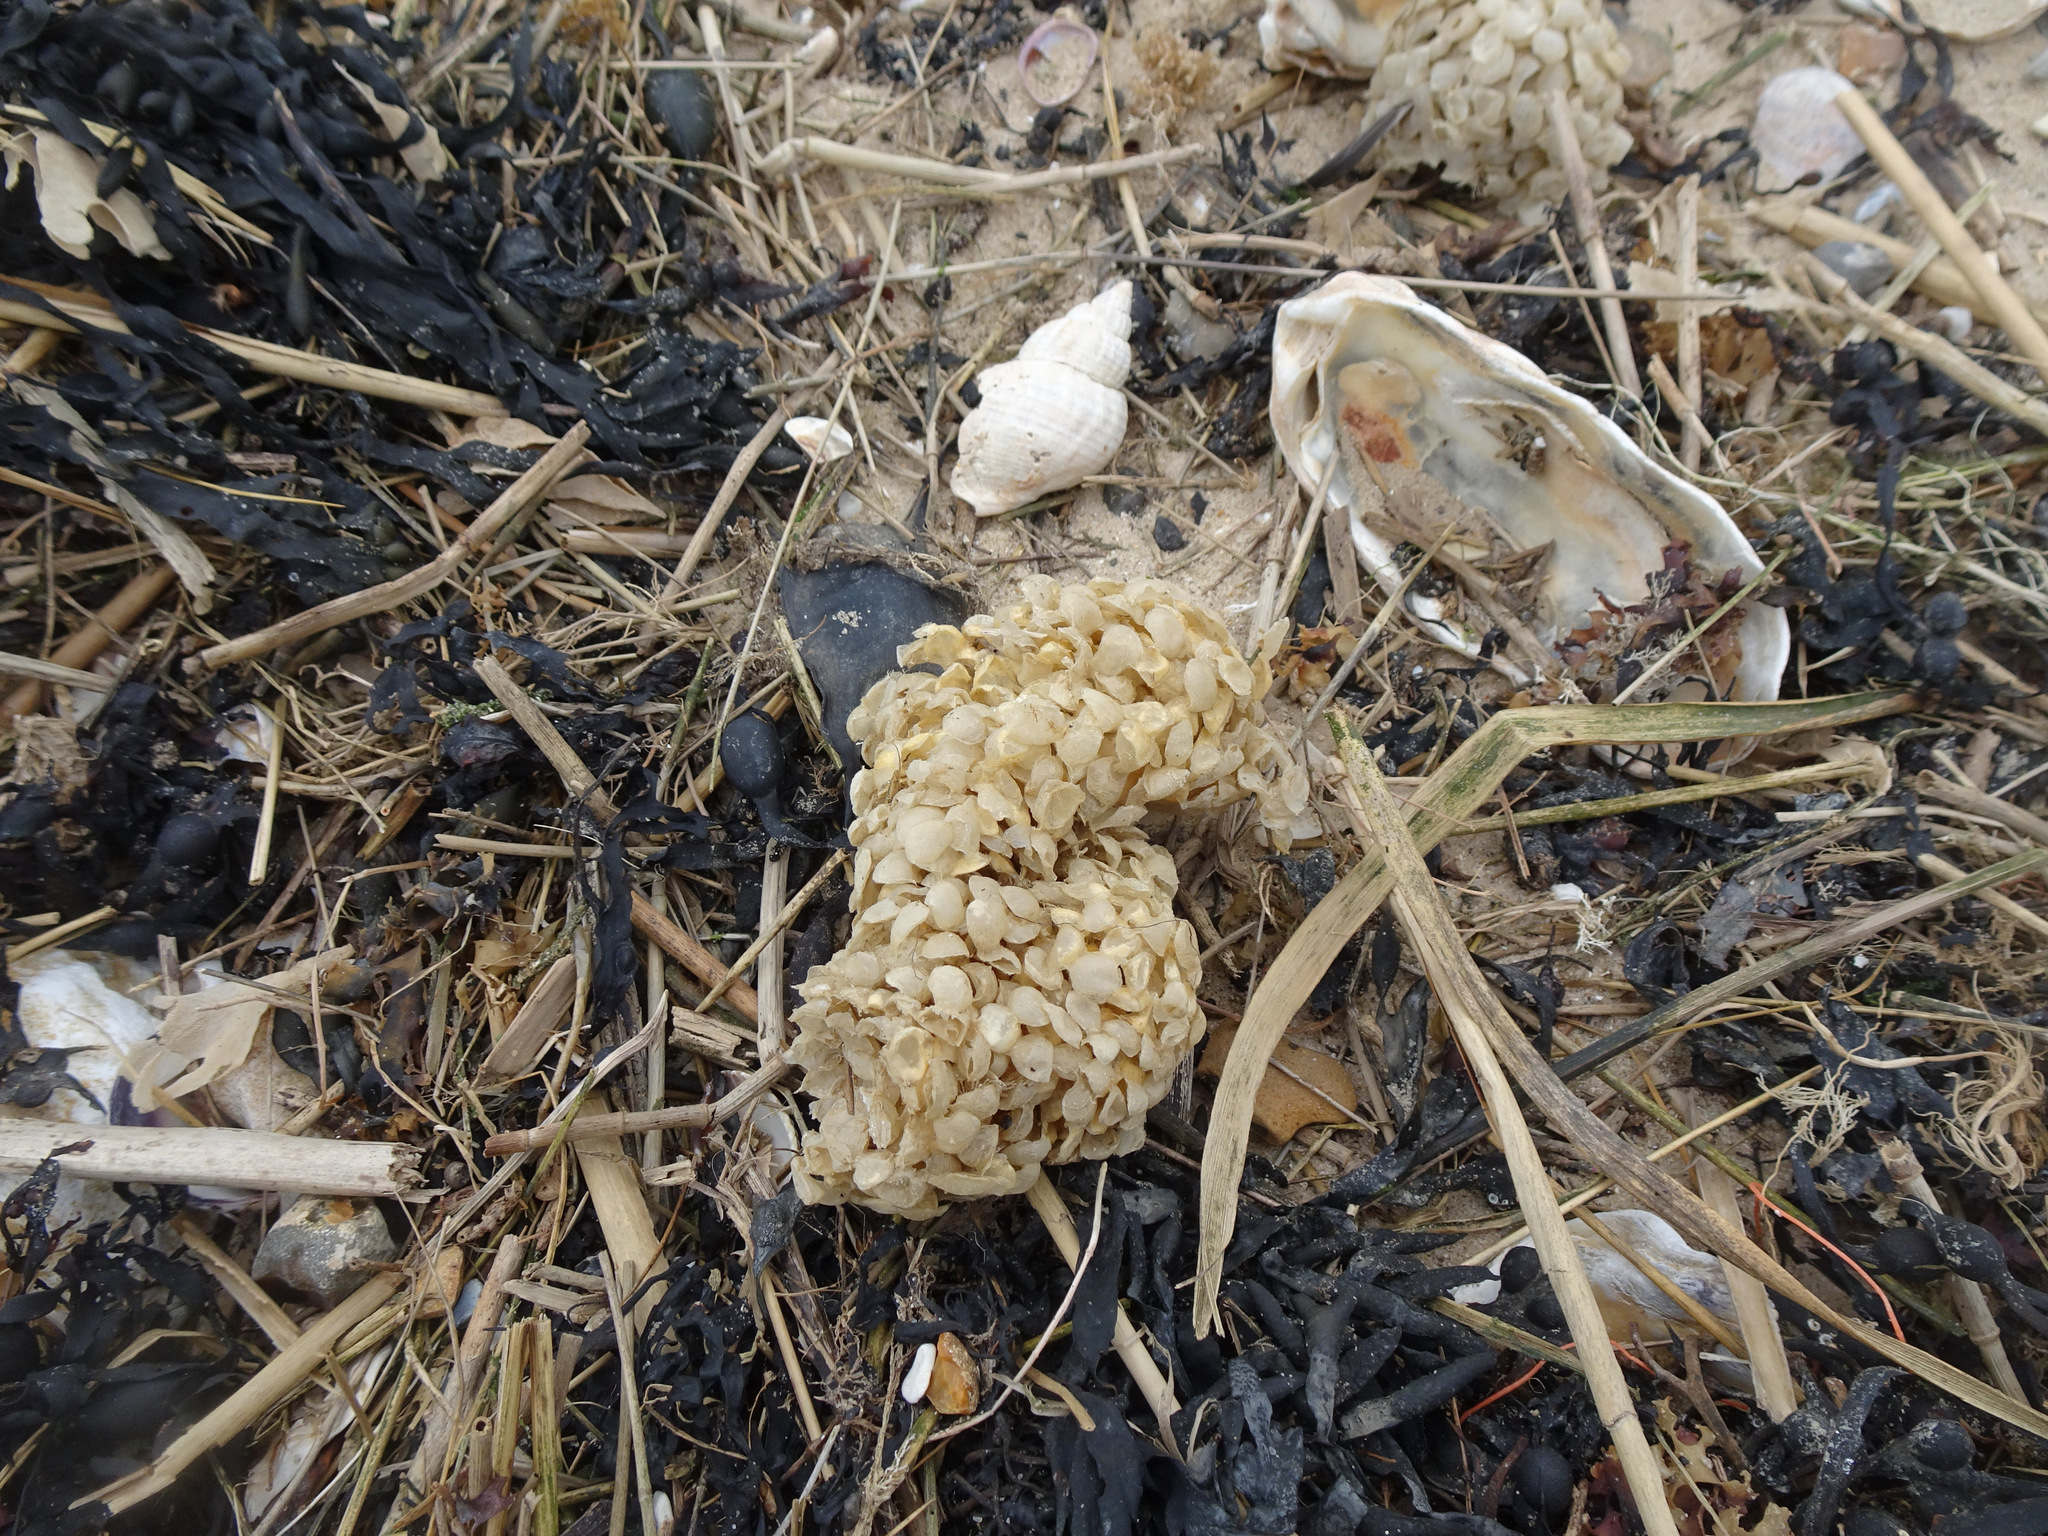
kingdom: Animalia
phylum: Mollusca
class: Gastropoda
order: Neogastropoda
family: Buccinidae
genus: Buccinum
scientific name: Buccinum undatum
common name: Common whelk
